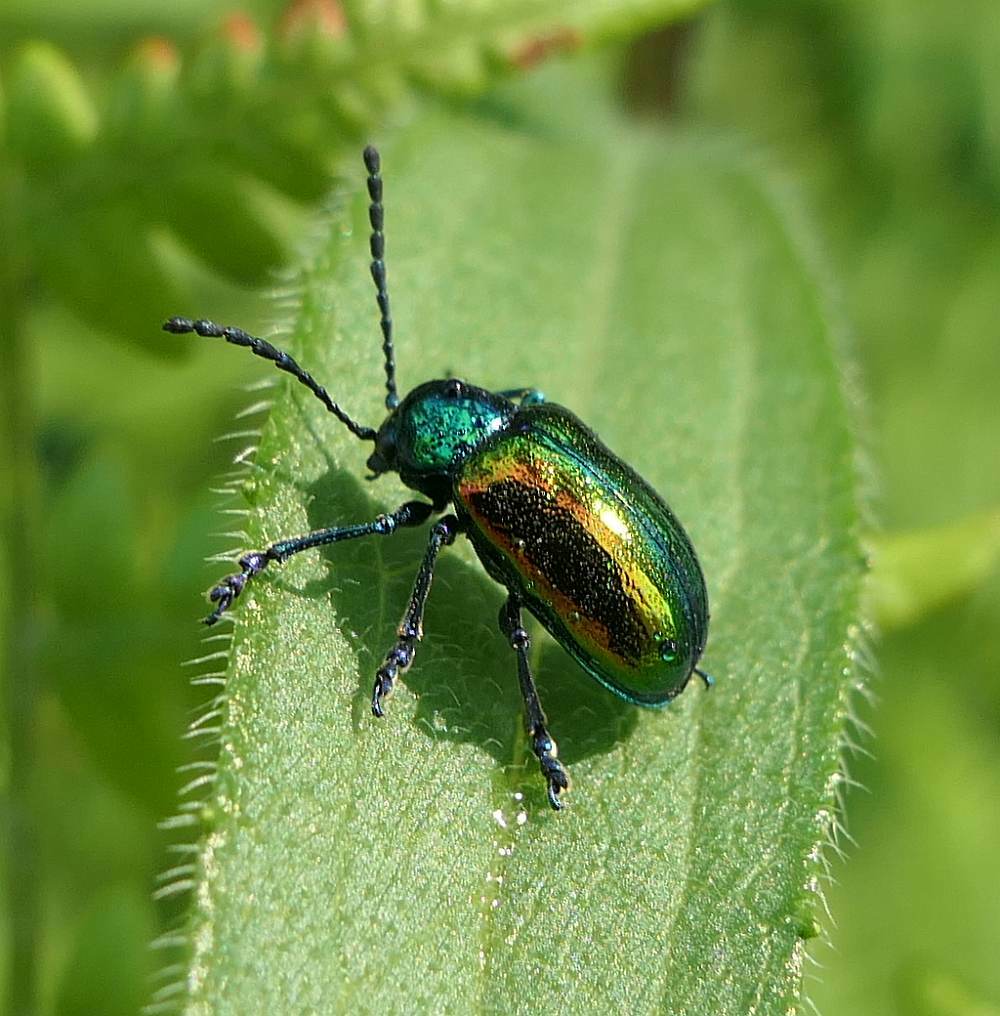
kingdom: Animalia
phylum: Arthropoda
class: Insecta
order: Coleoptera
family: Chrysomelidae
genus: Chrysochus
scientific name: Chrysochus auratus
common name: Dogbane leaf beetle
